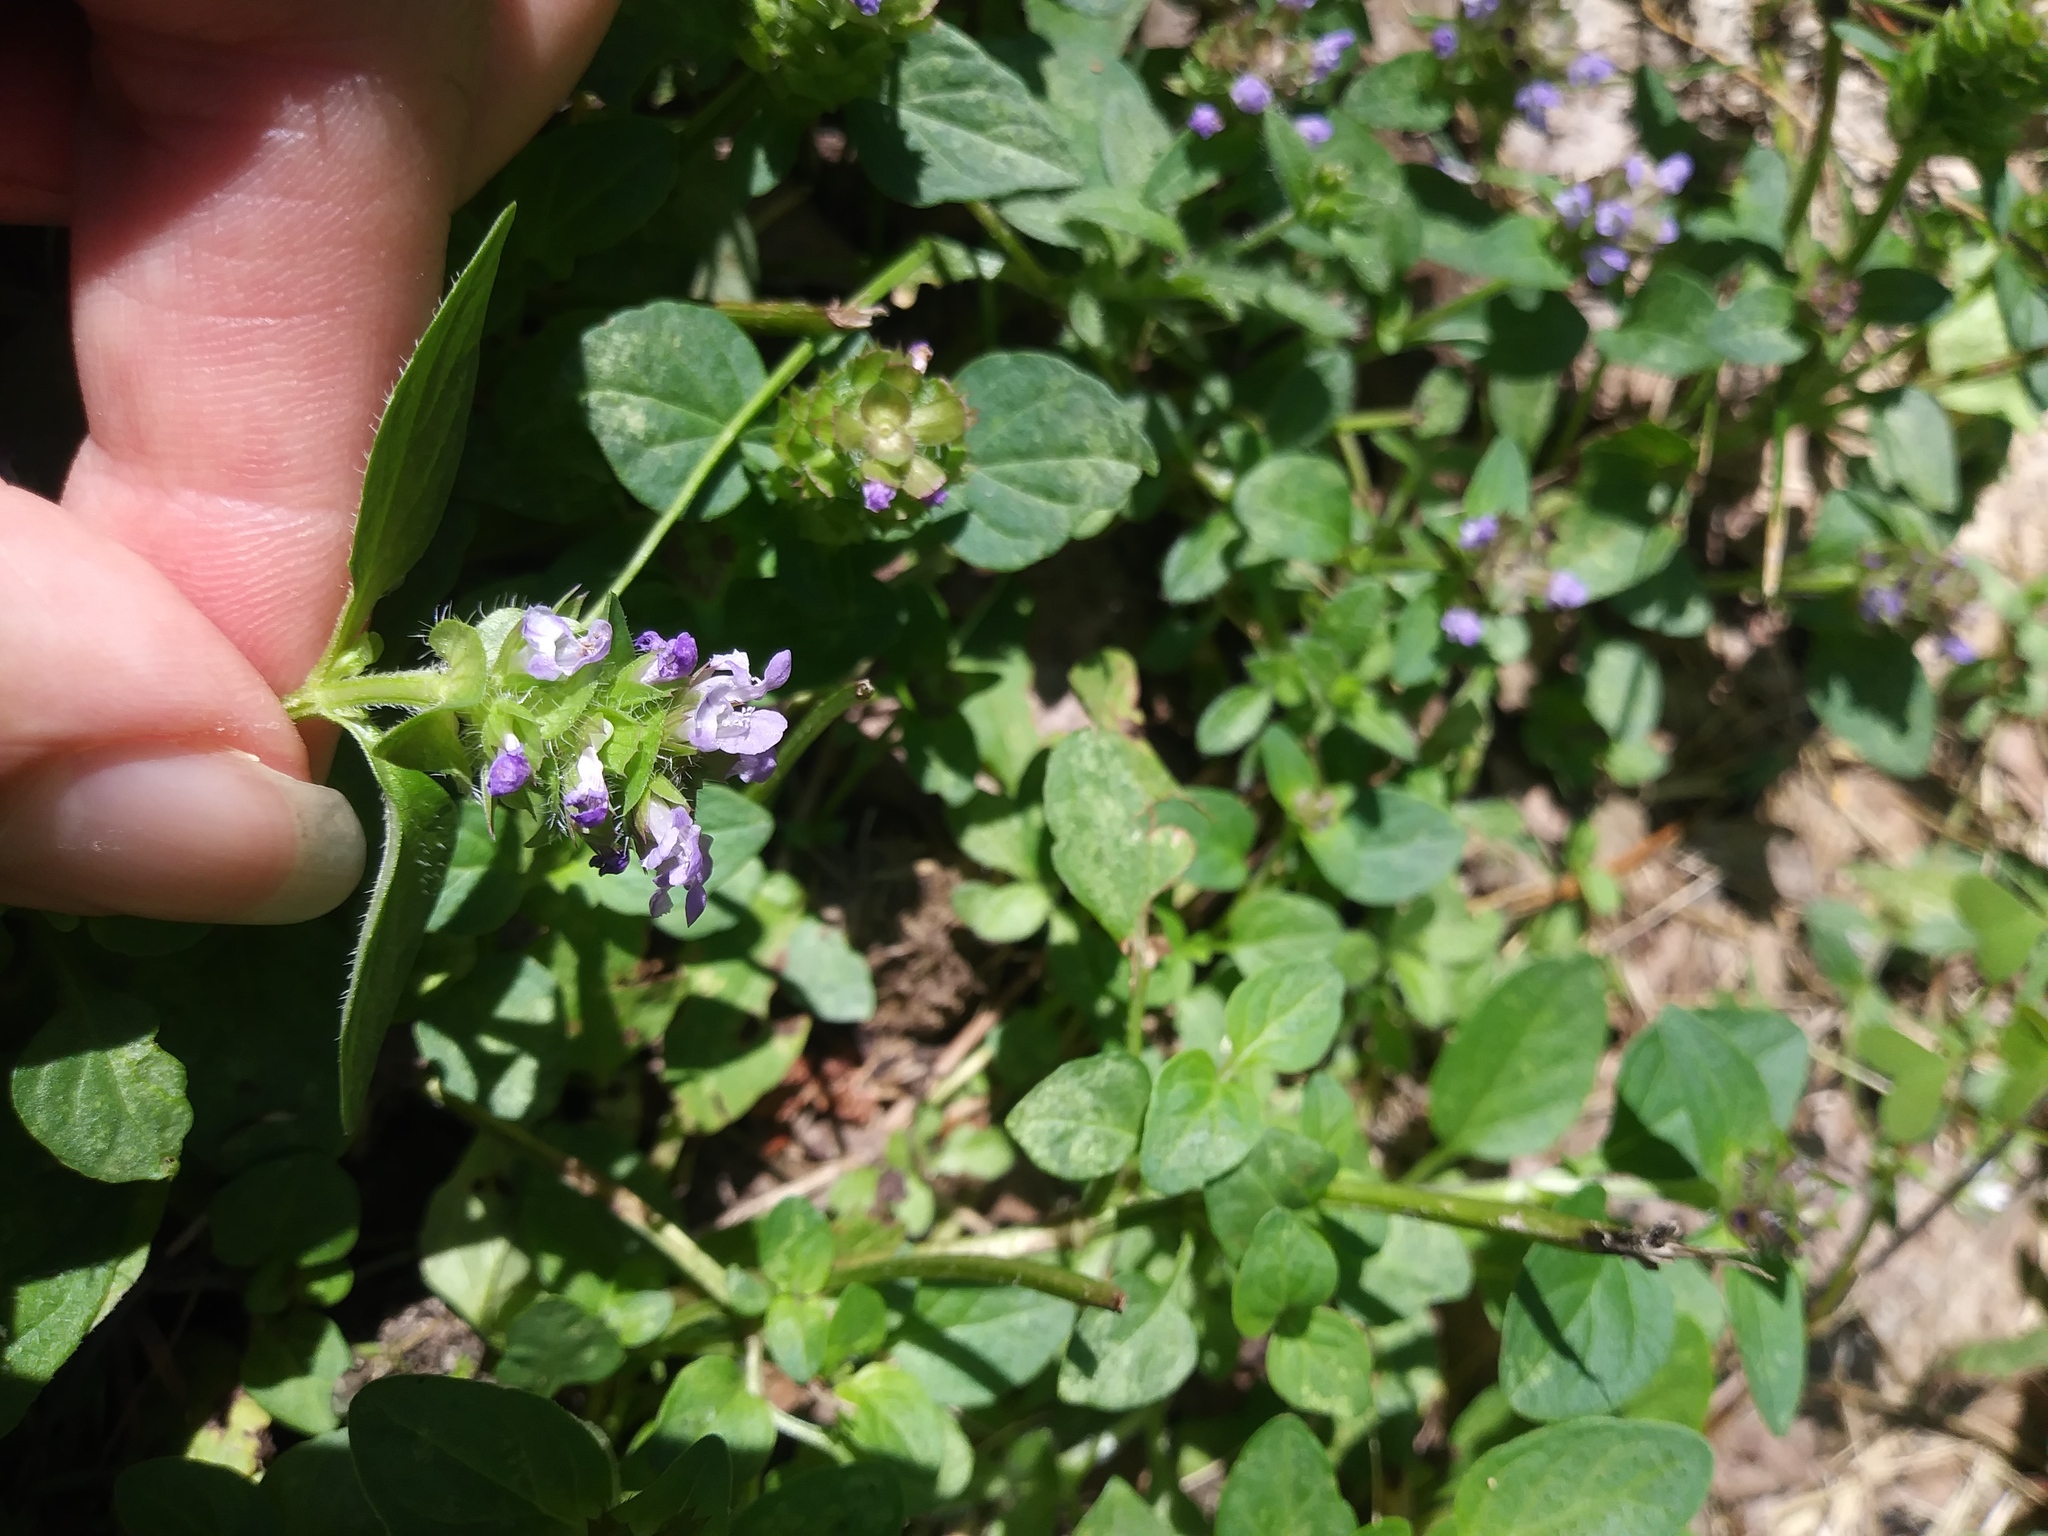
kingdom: Plantae
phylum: Tracheophyta
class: Magnoliopsida
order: Lamiales
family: Lamiaceae
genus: Prunella
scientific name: Prunella vulgaris
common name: Heal-all
